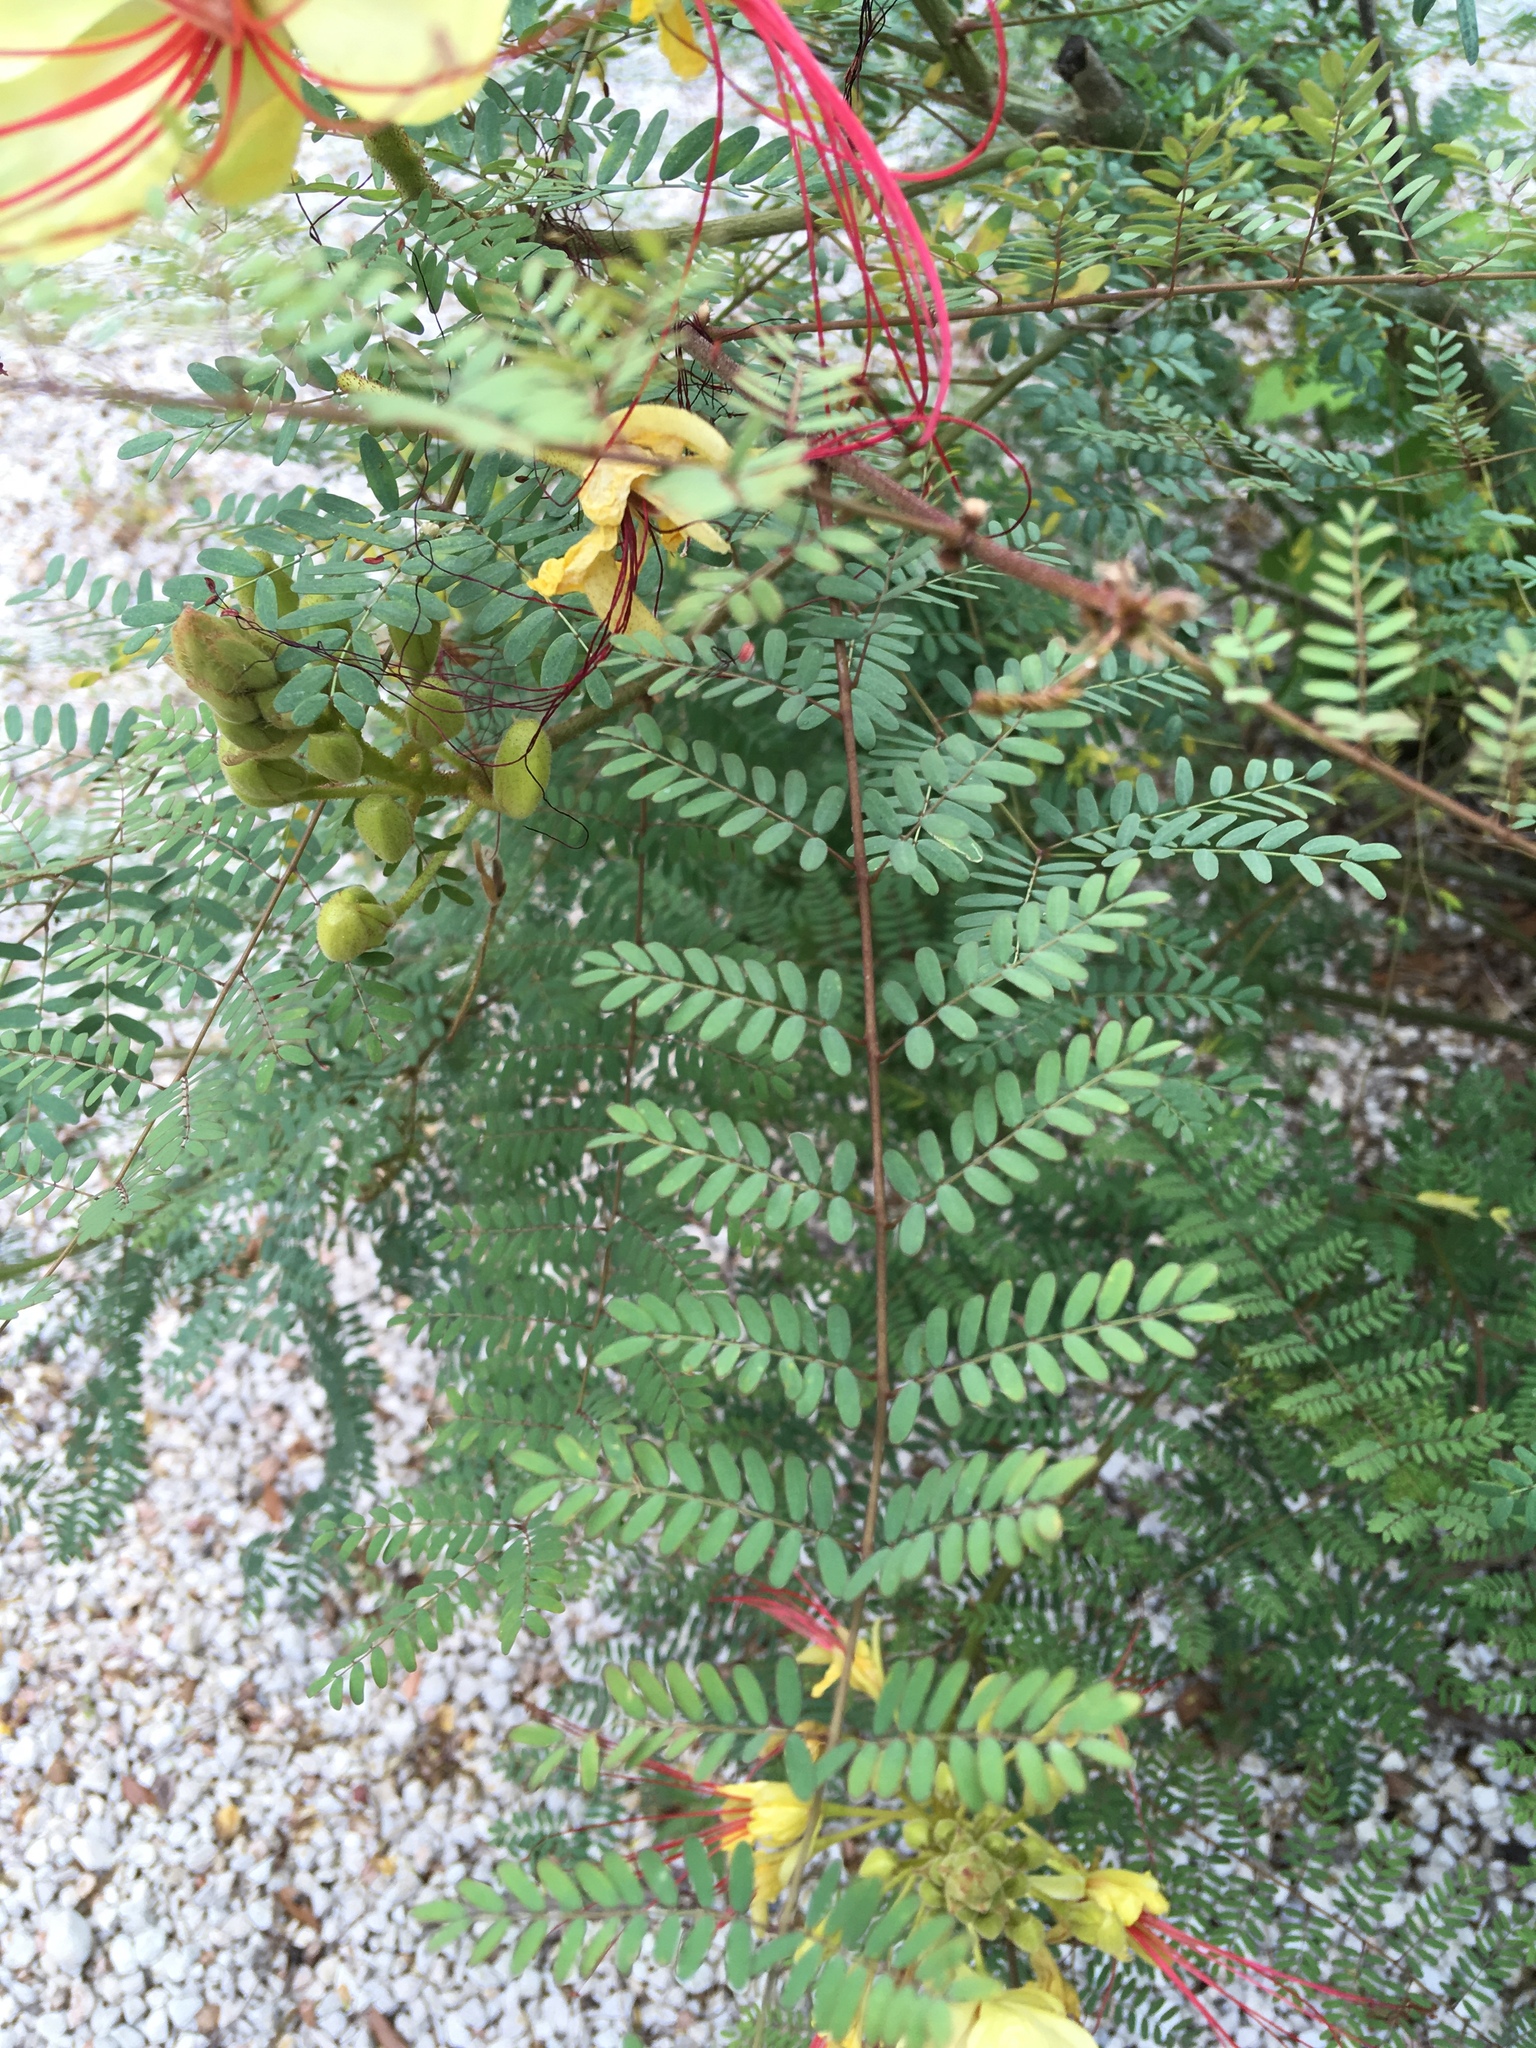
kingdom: Plantae
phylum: Tracheophyta
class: Magnoliopsida
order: Fabales
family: Fabaceae
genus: Erythrostemon
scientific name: Erythrostemon gilliesii
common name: Bird-of-paradise shrub
